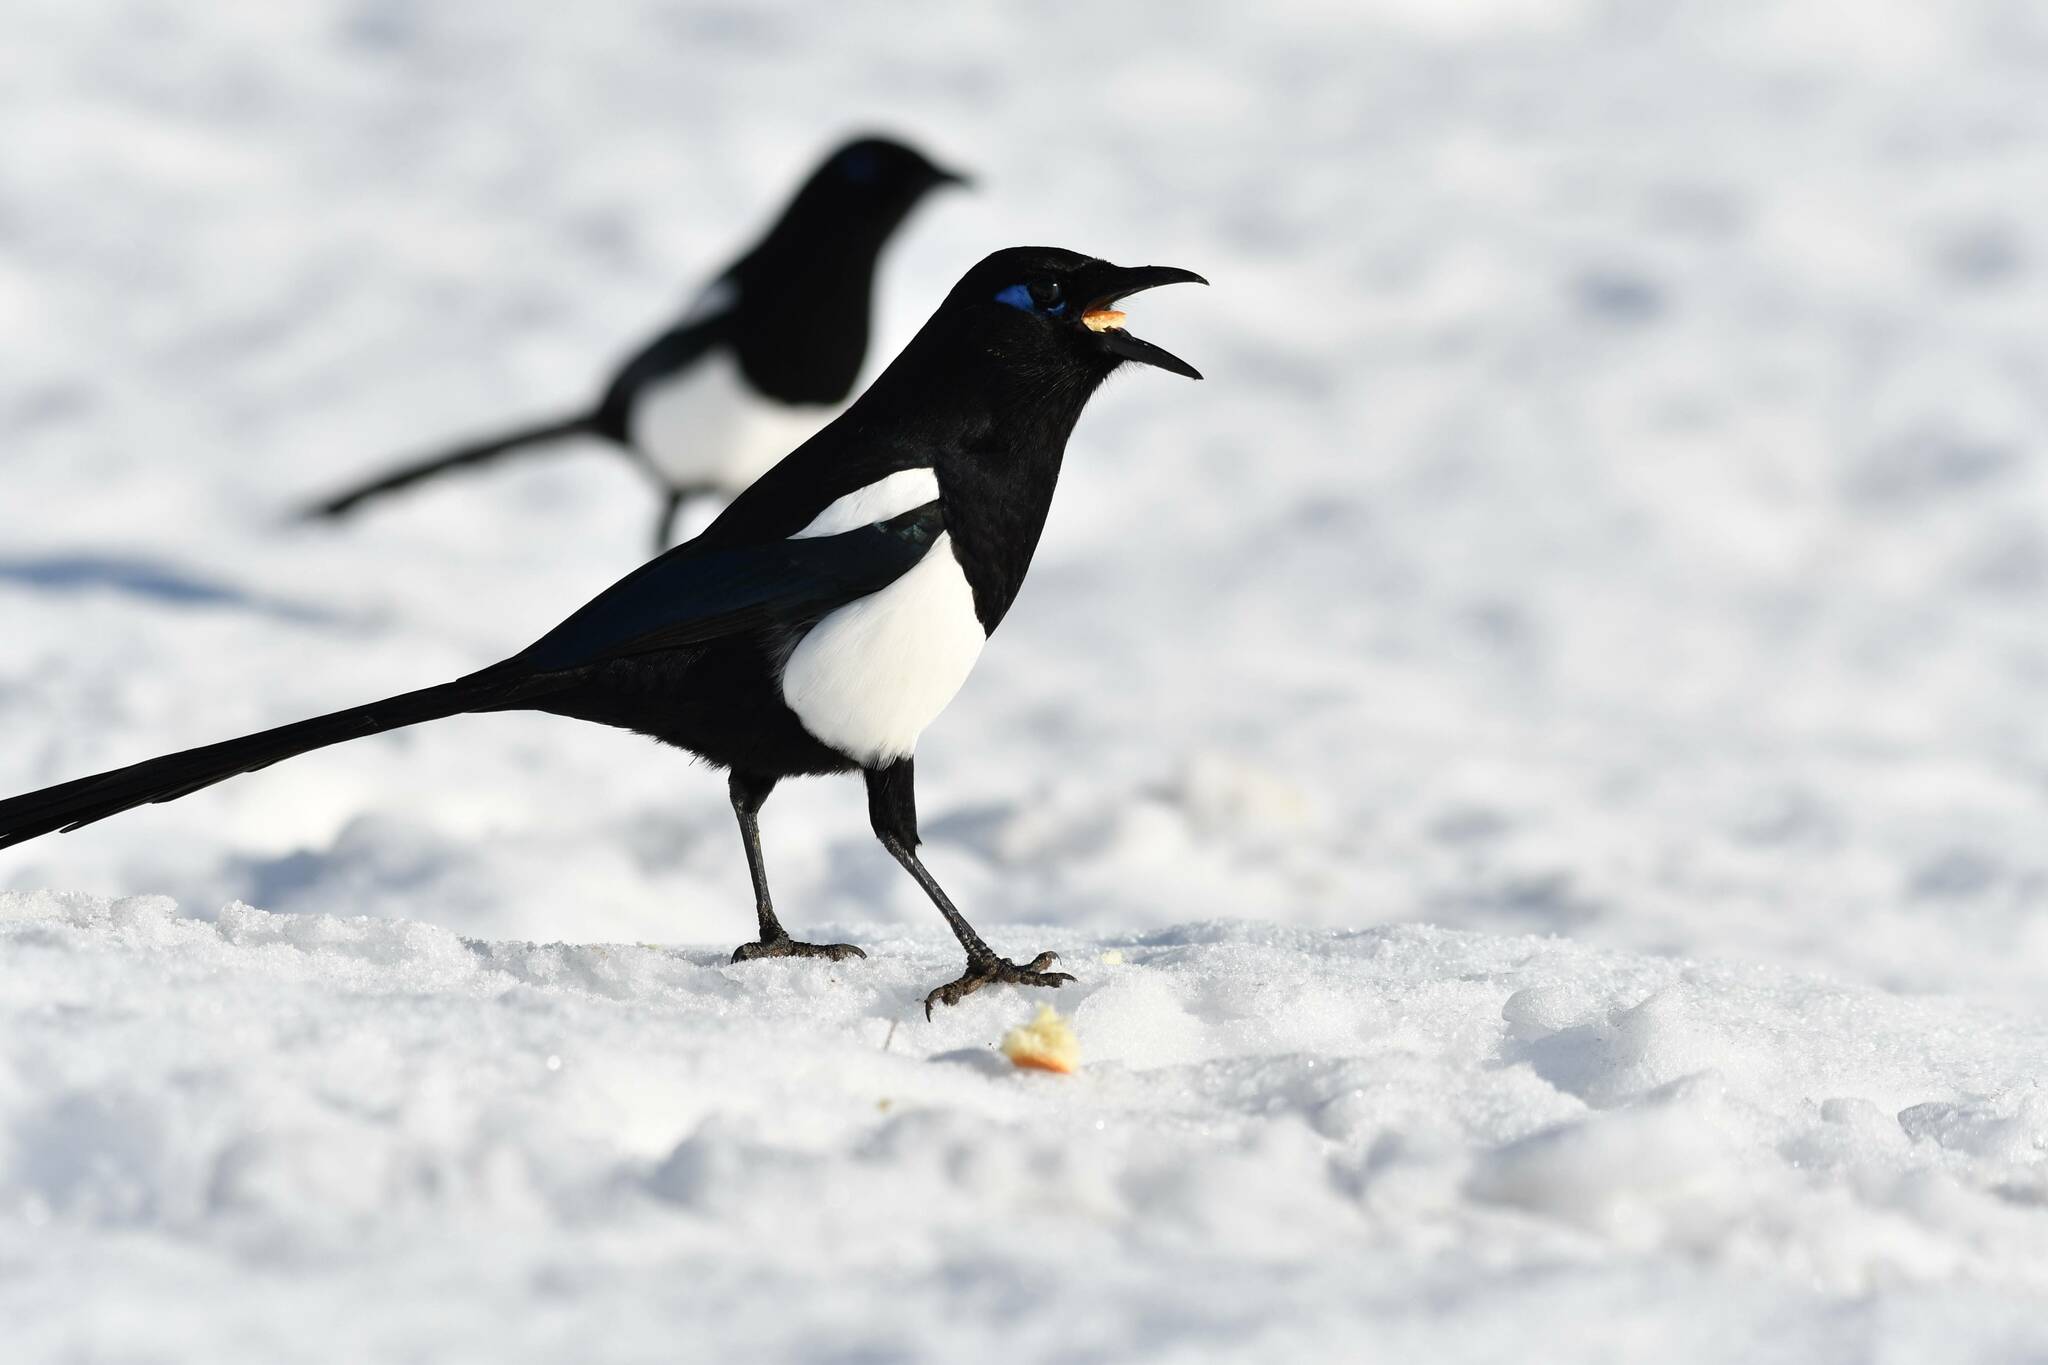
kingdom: Animalia
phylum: Chordata
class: Aves
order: Passeriformes
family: Corvidae
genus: Pica
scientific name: Pica mauritanica
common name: Maghreb magpie
